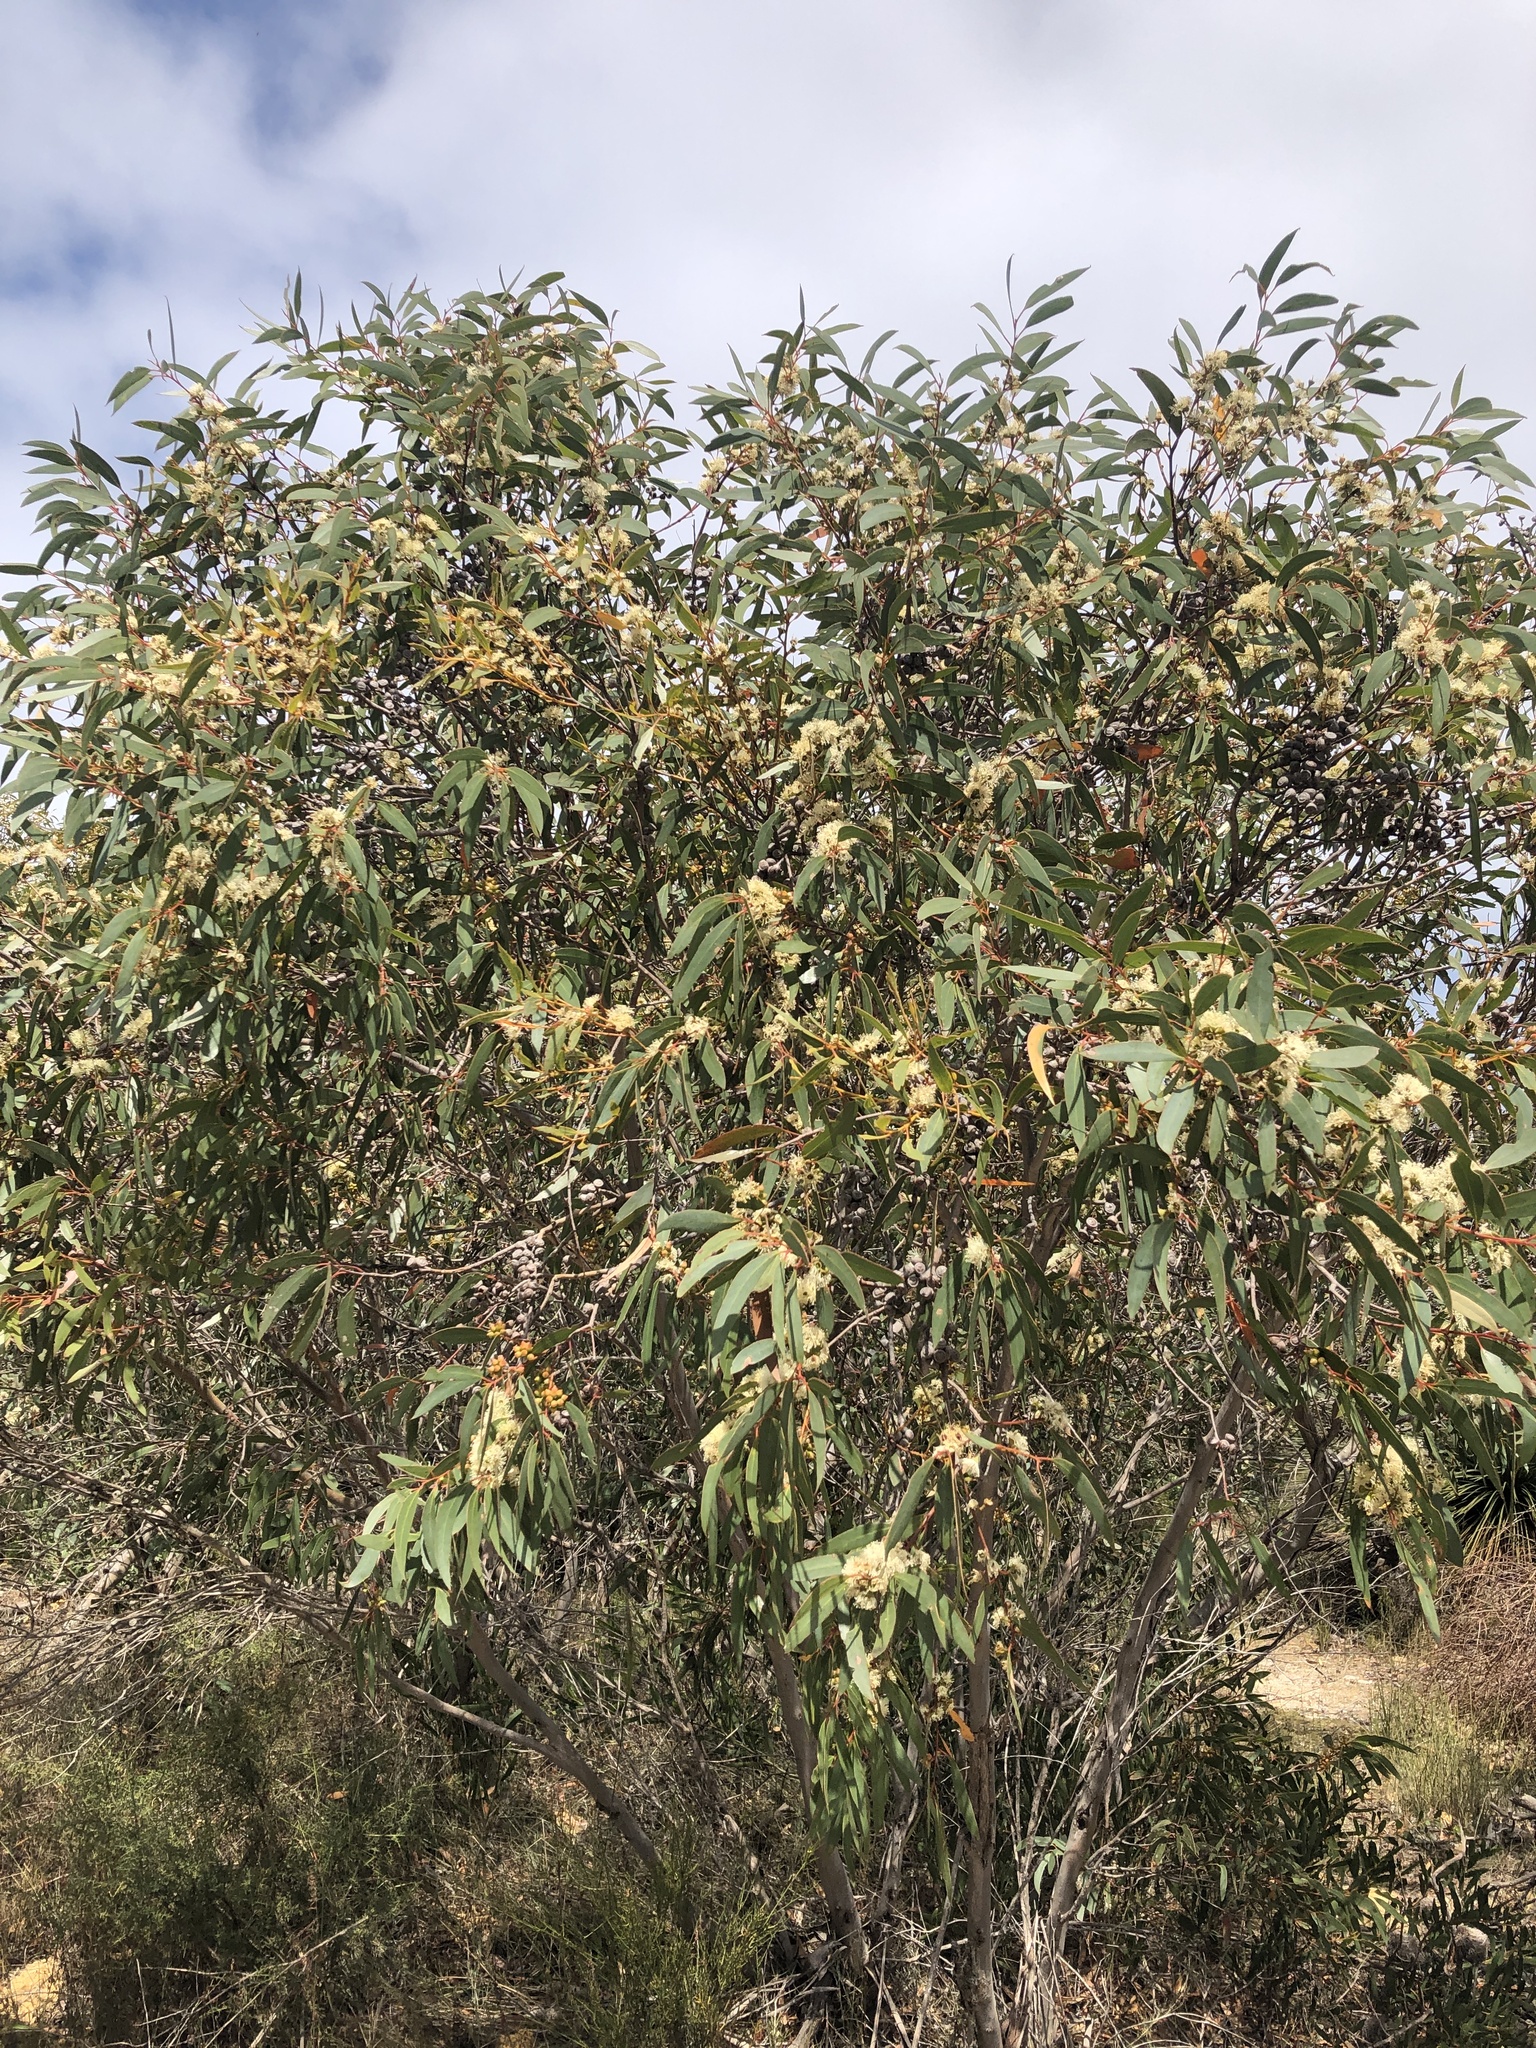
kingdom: Plantae
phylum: Tracheophyta
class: Magnoliopsida
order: Myrtales
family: Myrtaceae
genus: Eucalyptus
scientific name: Eucalyptus diversifolia
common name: Coastal white mallee
